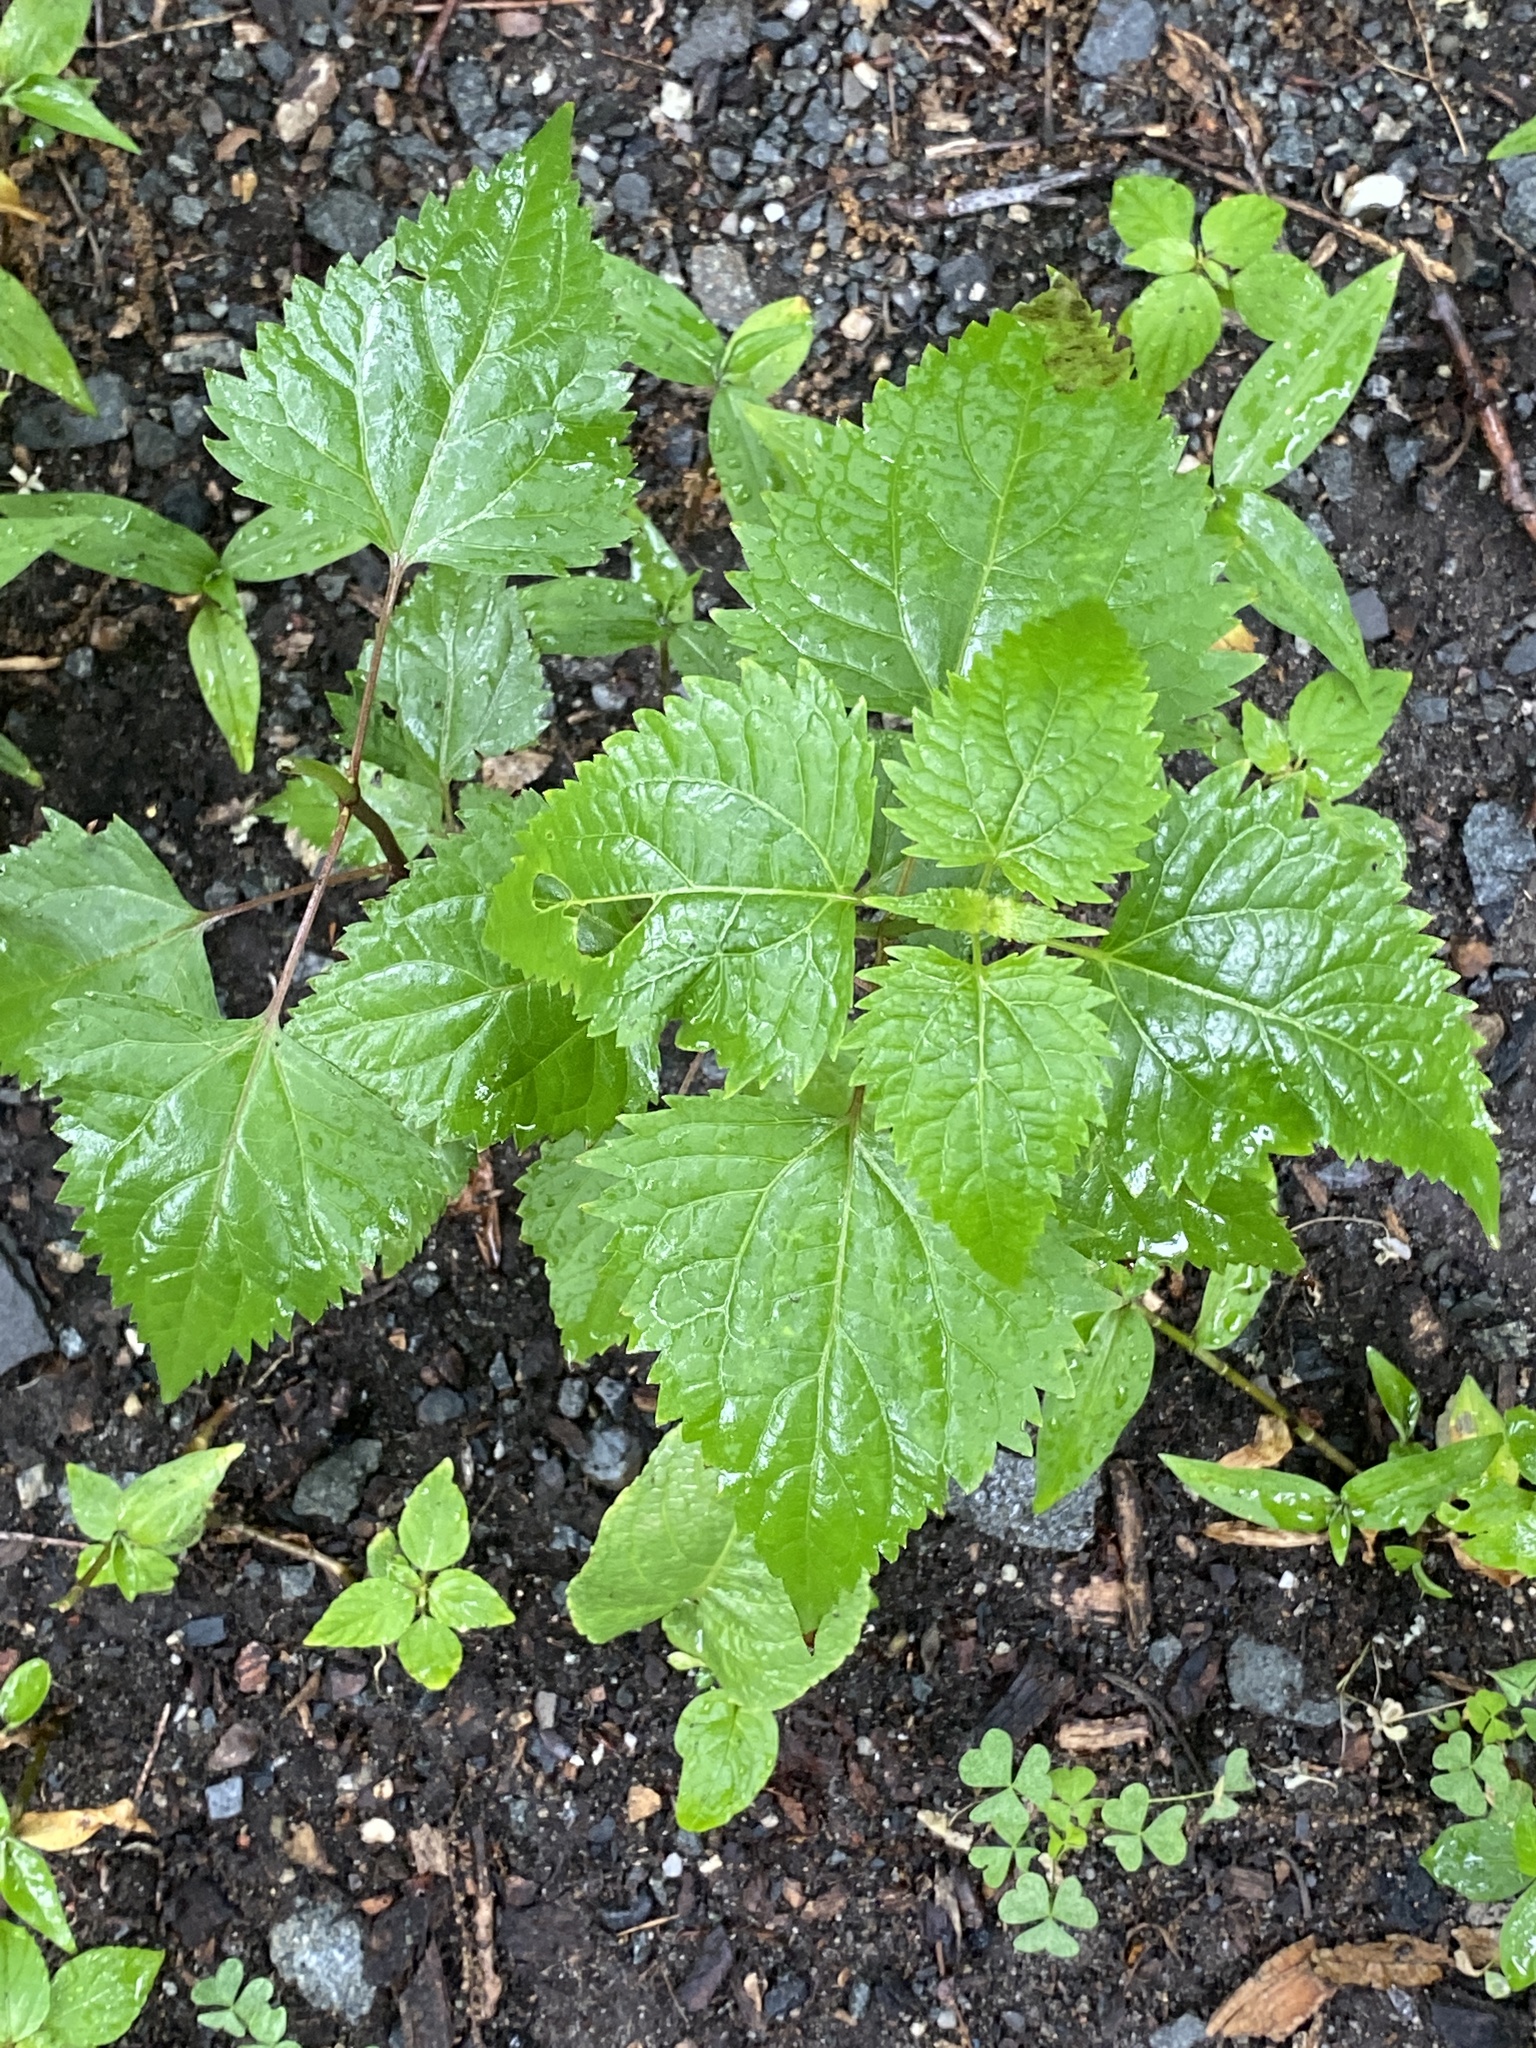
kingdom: Plantae
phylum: Tracheophyta
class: Magnoliopsida
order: Asterales
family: Asteraceae
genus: Ageratina
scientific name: Ageratina altissima
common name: White snakeroot
